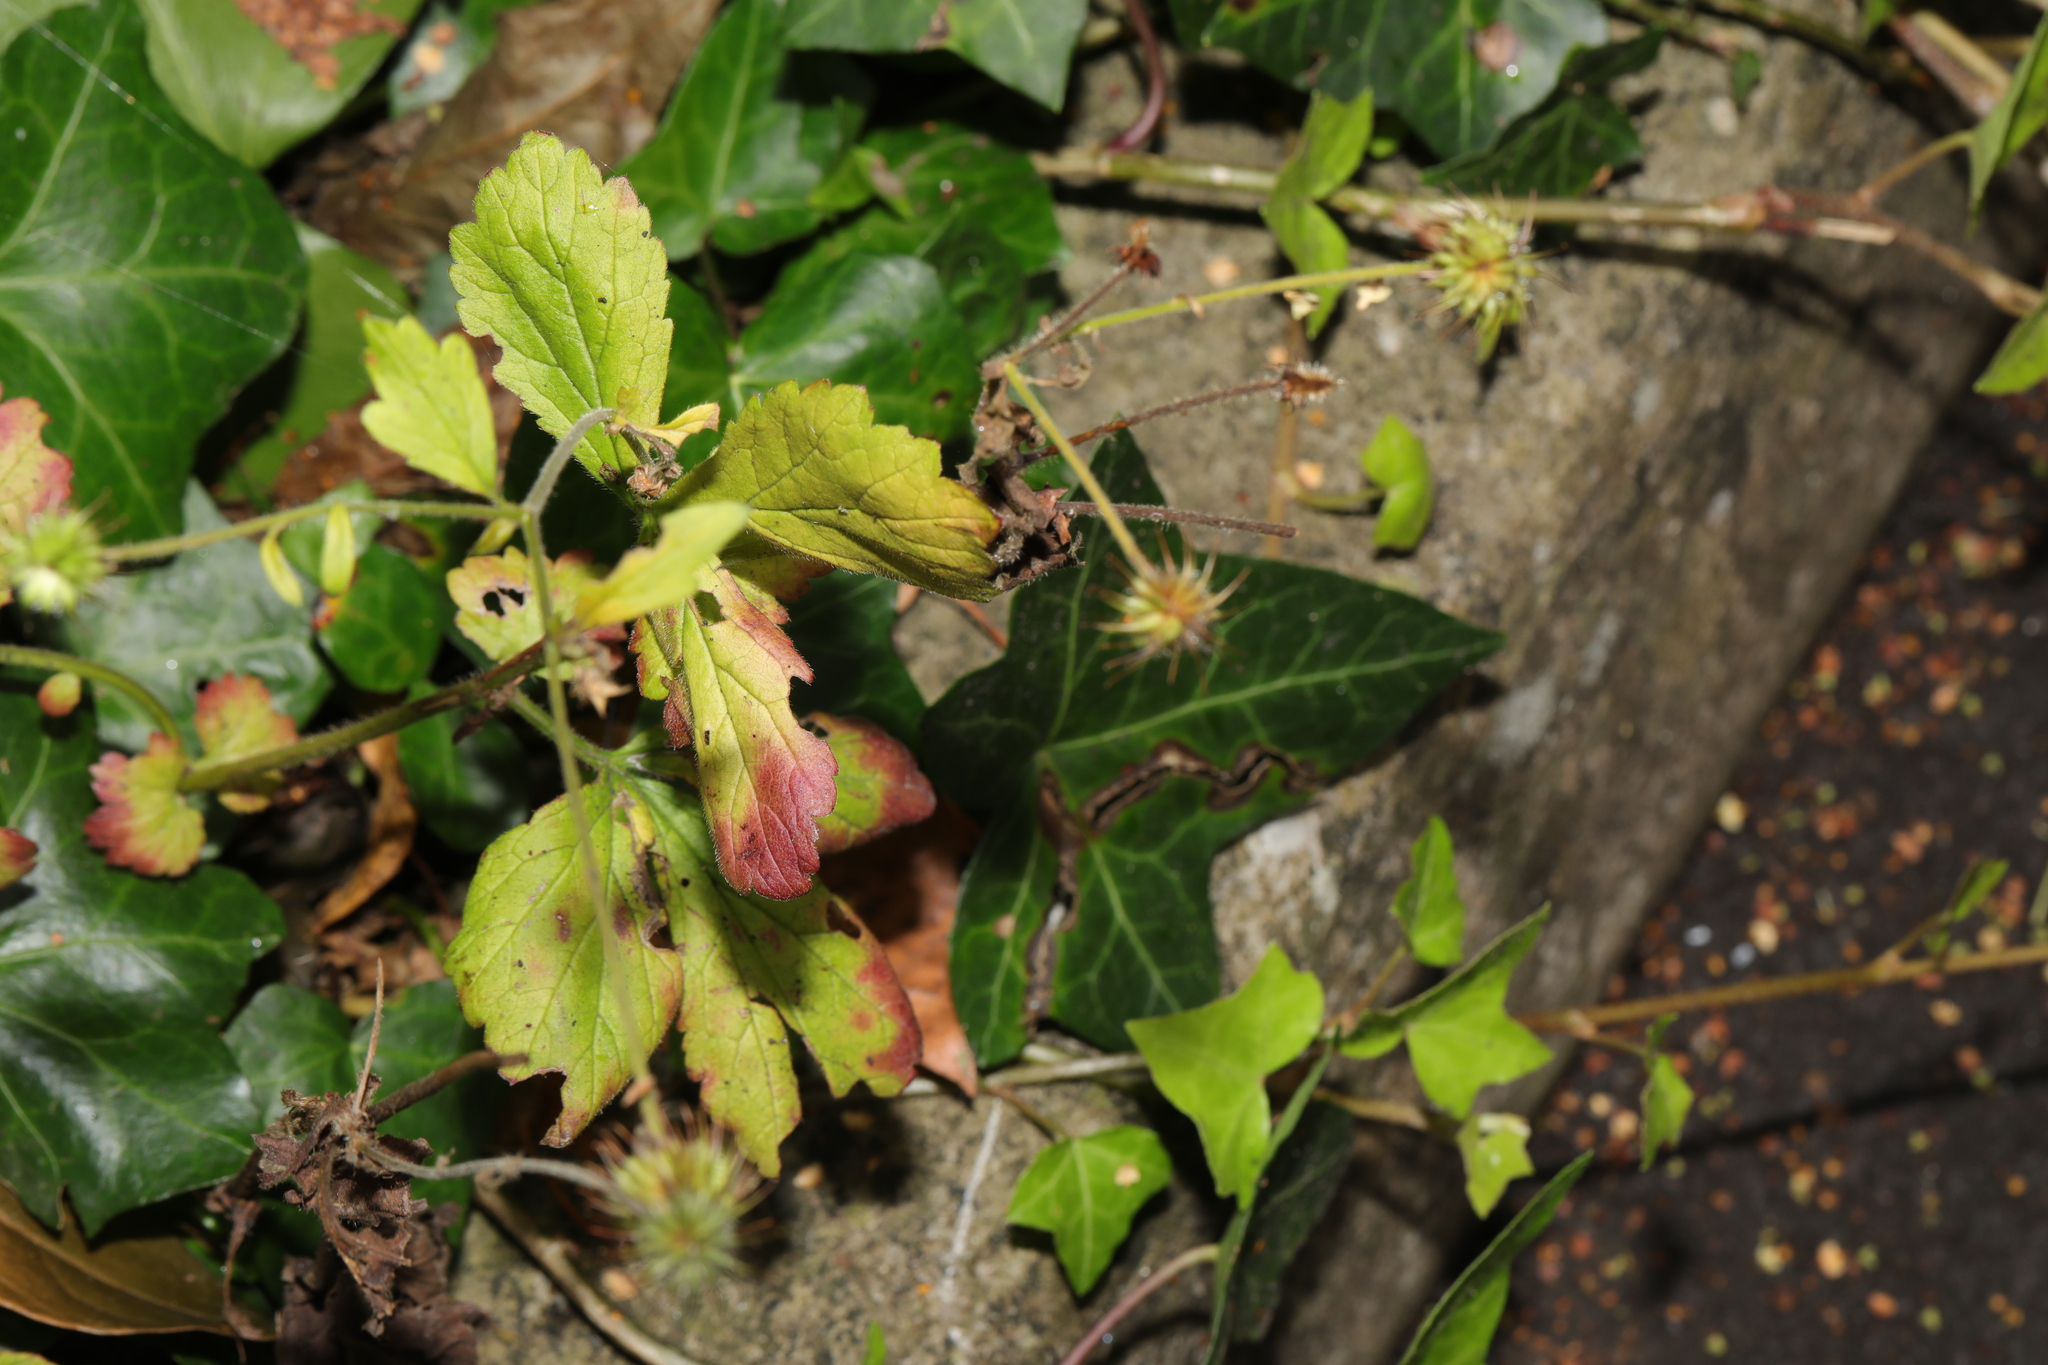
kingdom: Plantae
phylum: Tracheophyta
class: Magnoliopsida
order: Rosales
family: Rosaceae
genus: Geum
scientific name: Geum urbanum
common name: Wood avens
